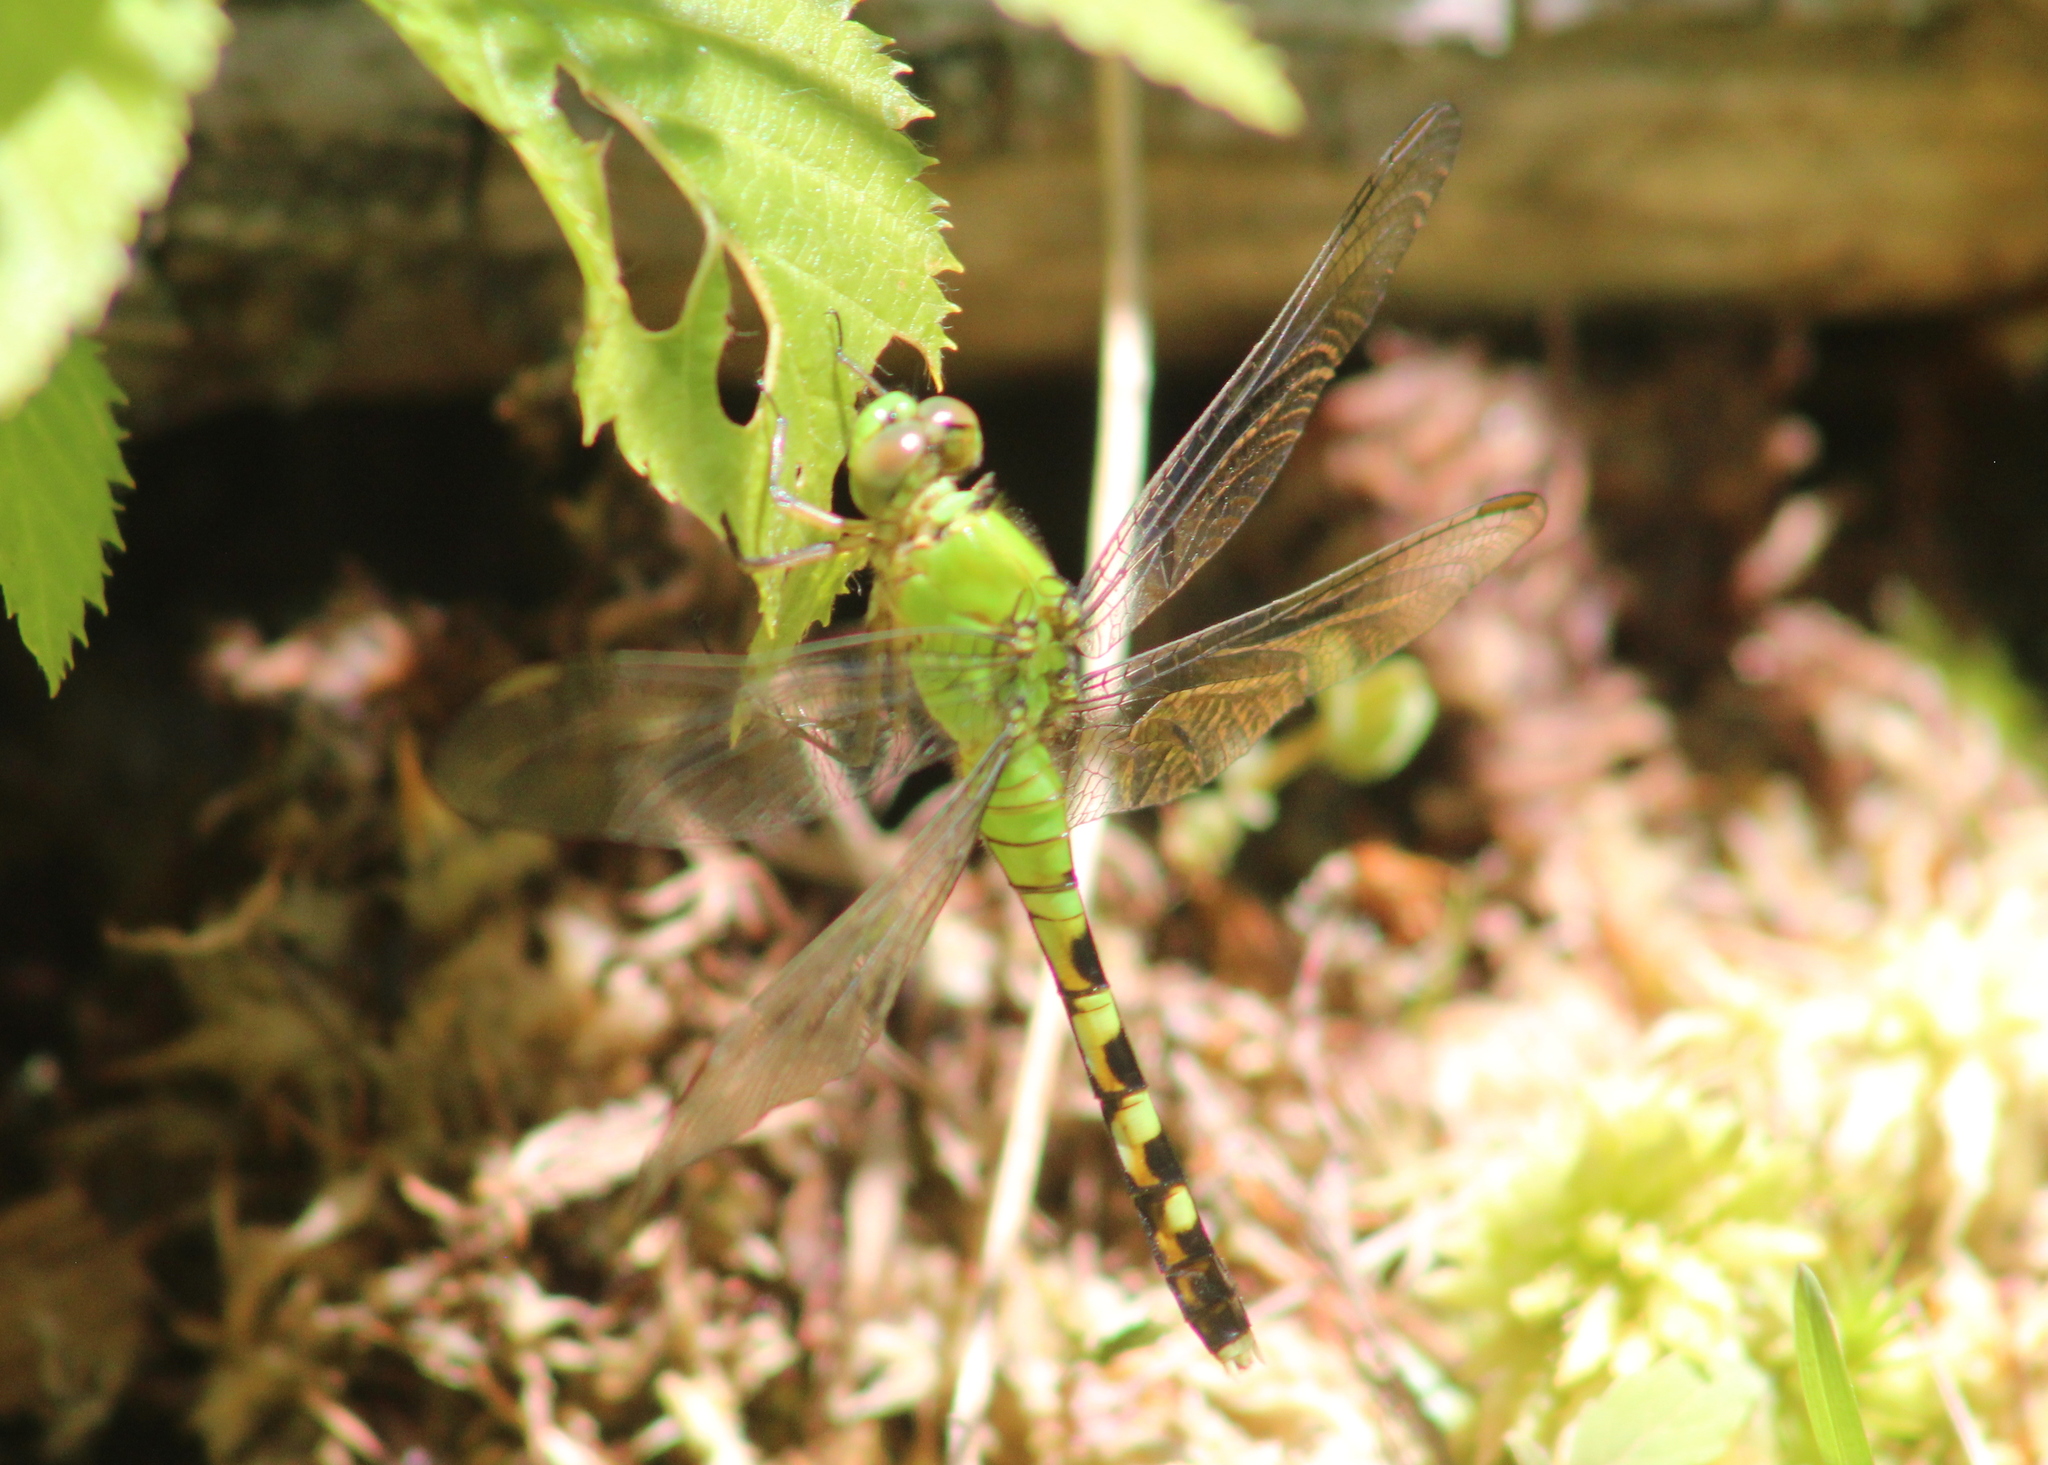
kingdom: Animalia
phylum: Arthropoda
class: Insecta
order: Odonata
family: Libellulidae
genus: Erythemis
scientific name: Erythemis simplicicollis
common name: Eastern pondhawk
